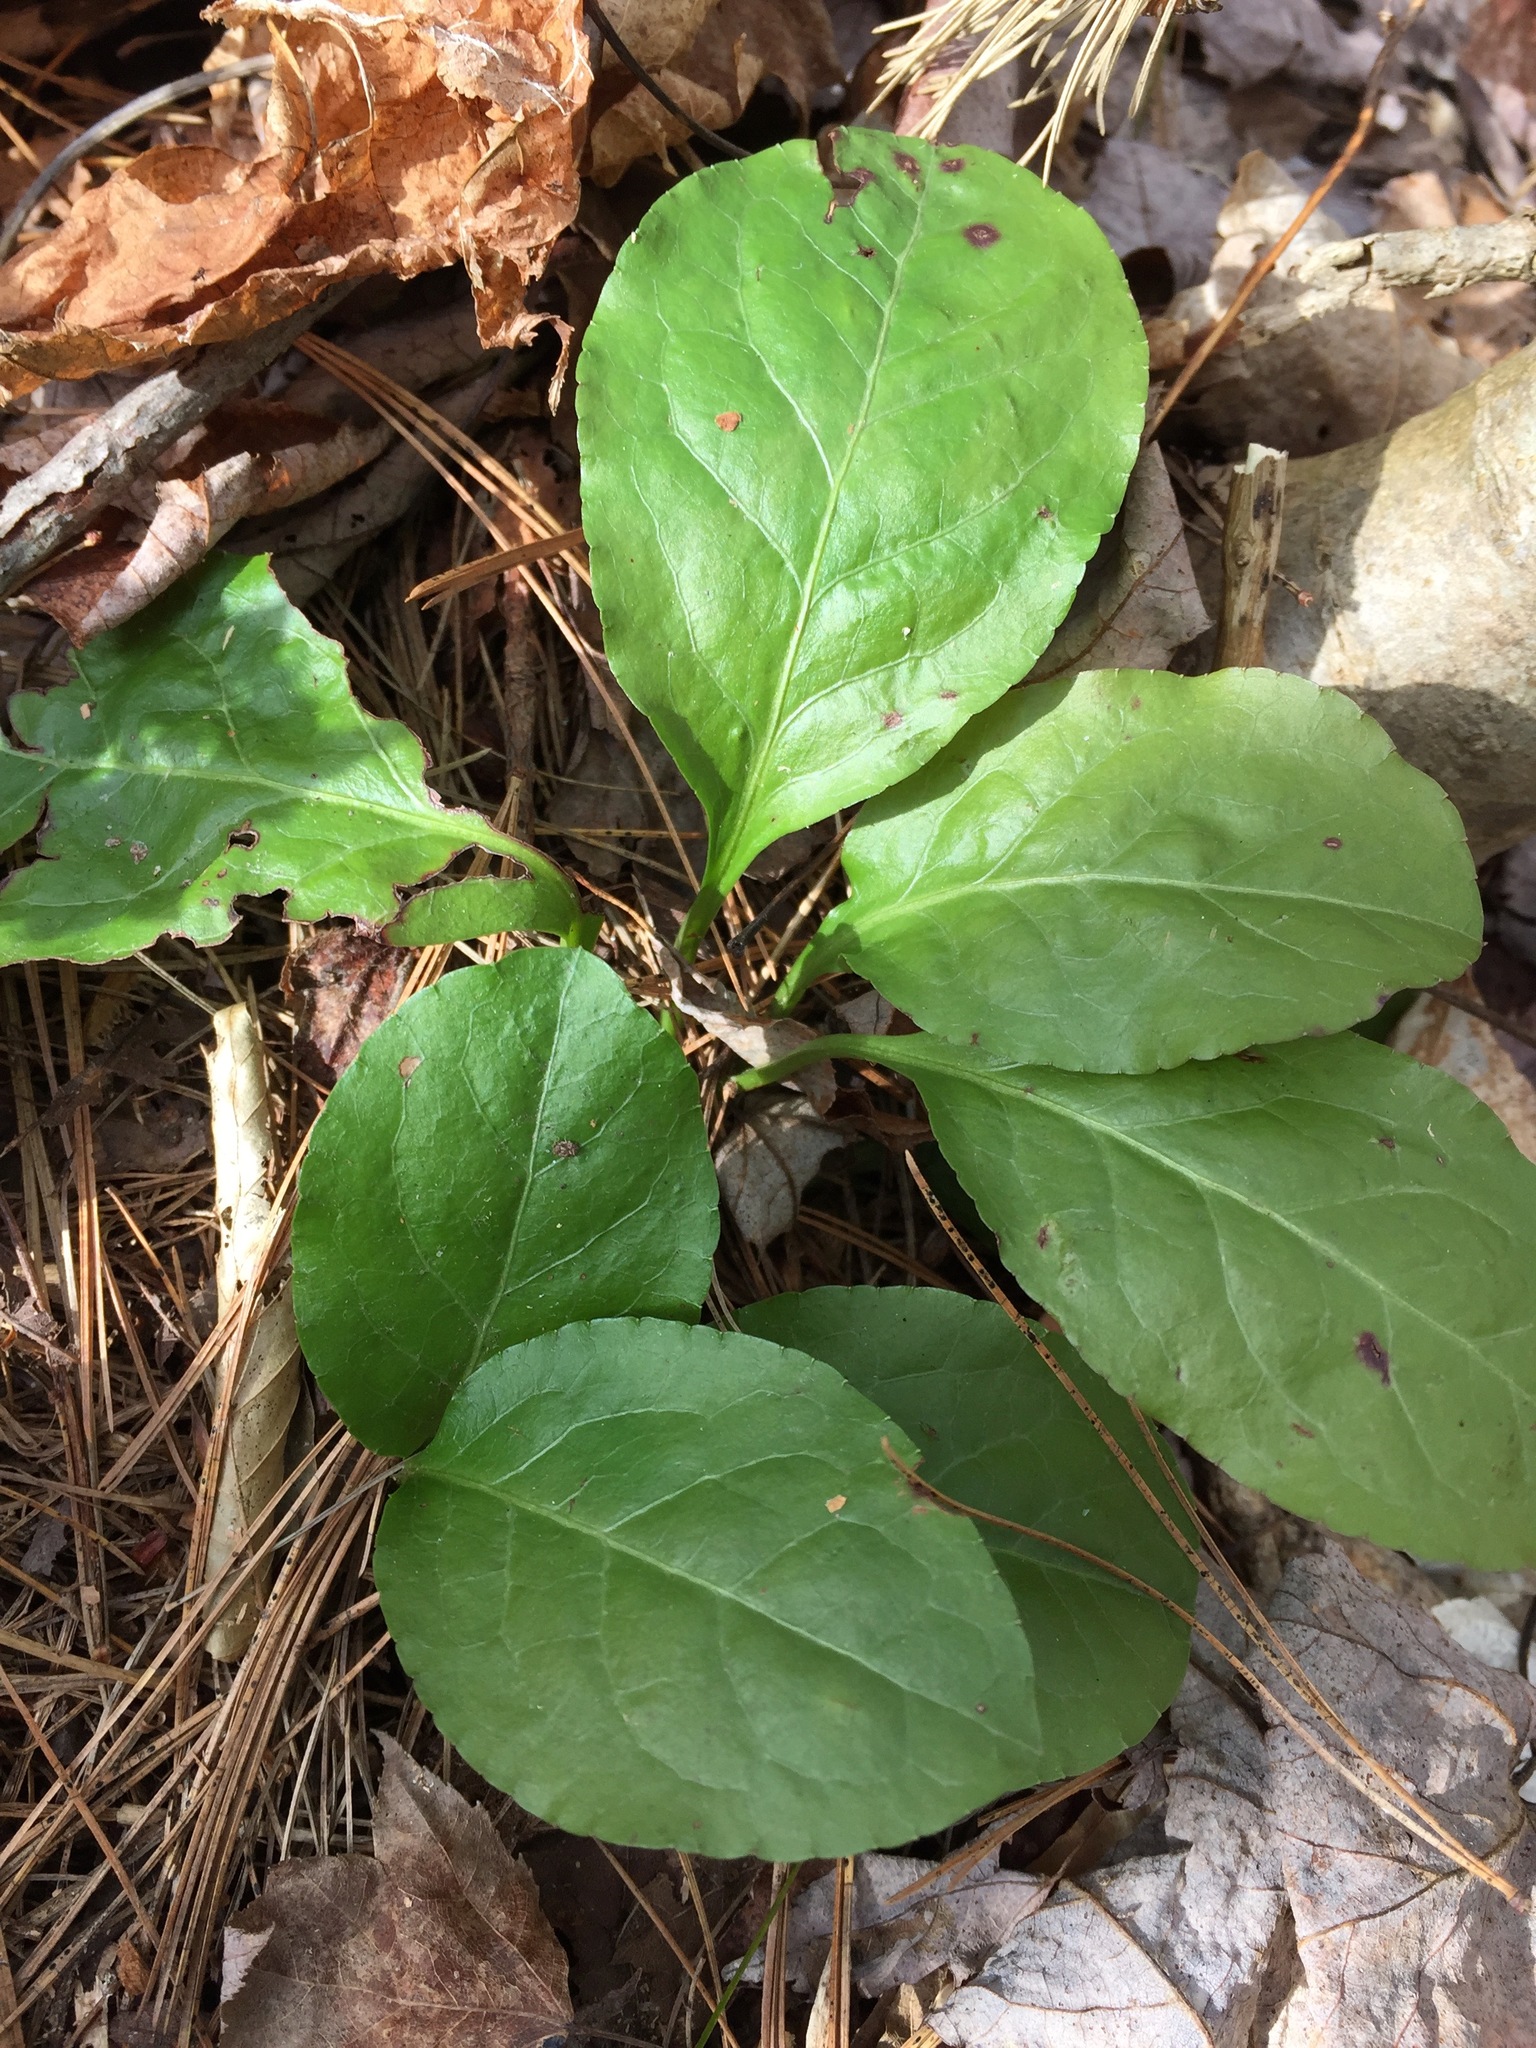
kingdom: Plantae
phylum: Tracheophyta
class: Magnoliopsida
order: Ericales
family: Ericaceae
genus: Pyrola
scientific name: Pyrola elliptica
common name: Shinleaf
